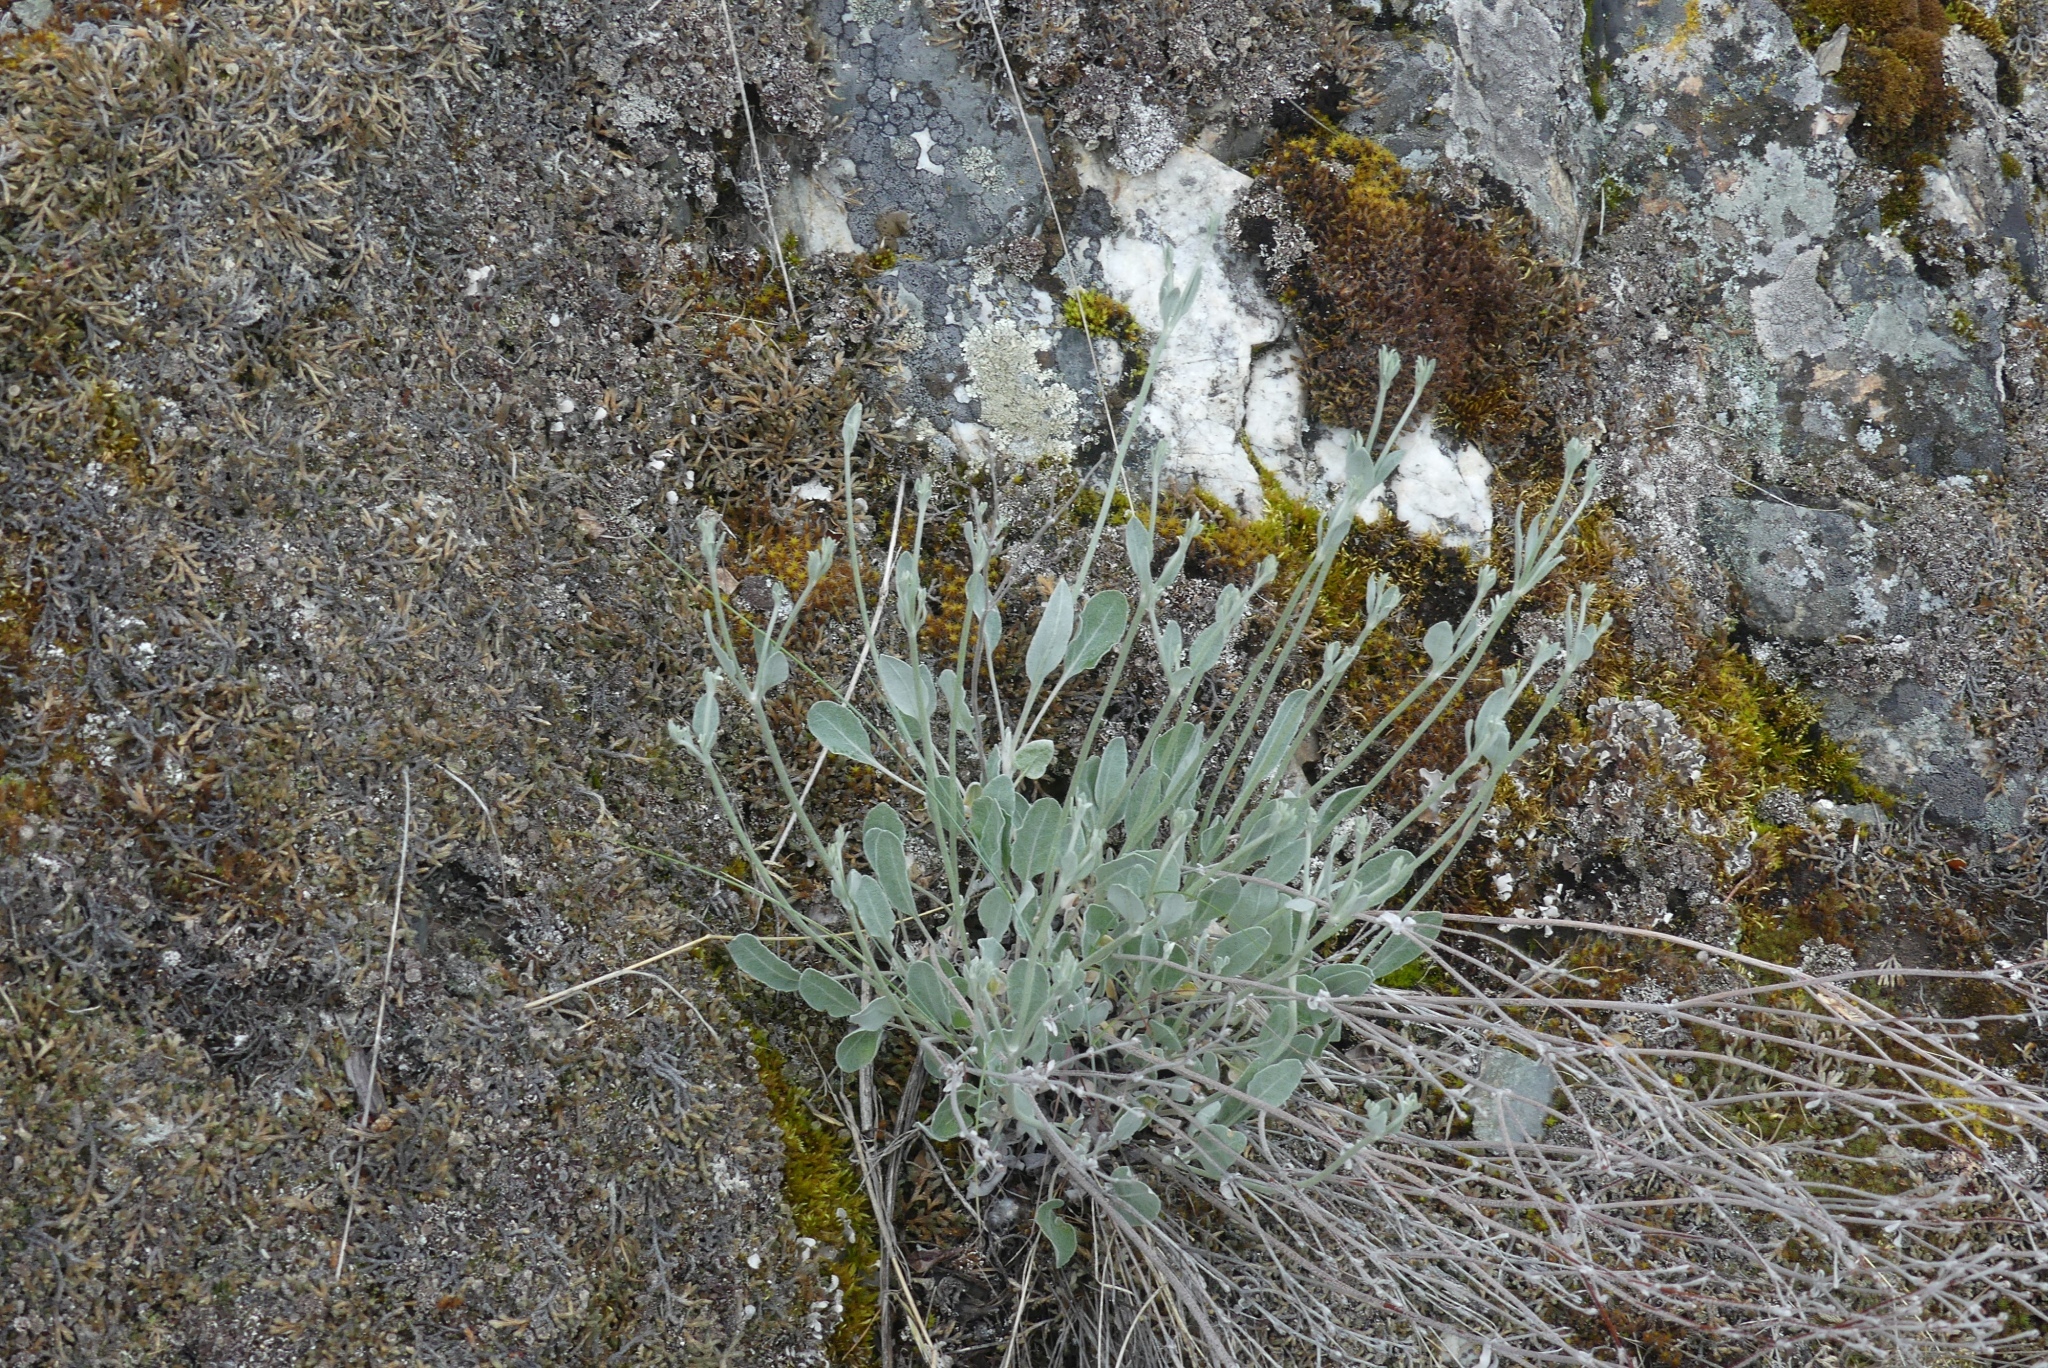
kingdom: Plantae
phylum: Tracheophyta
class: Magnoliopsida
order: Caryophyllales
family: Polygonaceae
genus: Eriogonum
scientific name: Eriogonum niveum
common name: Snow wild buckwheat
